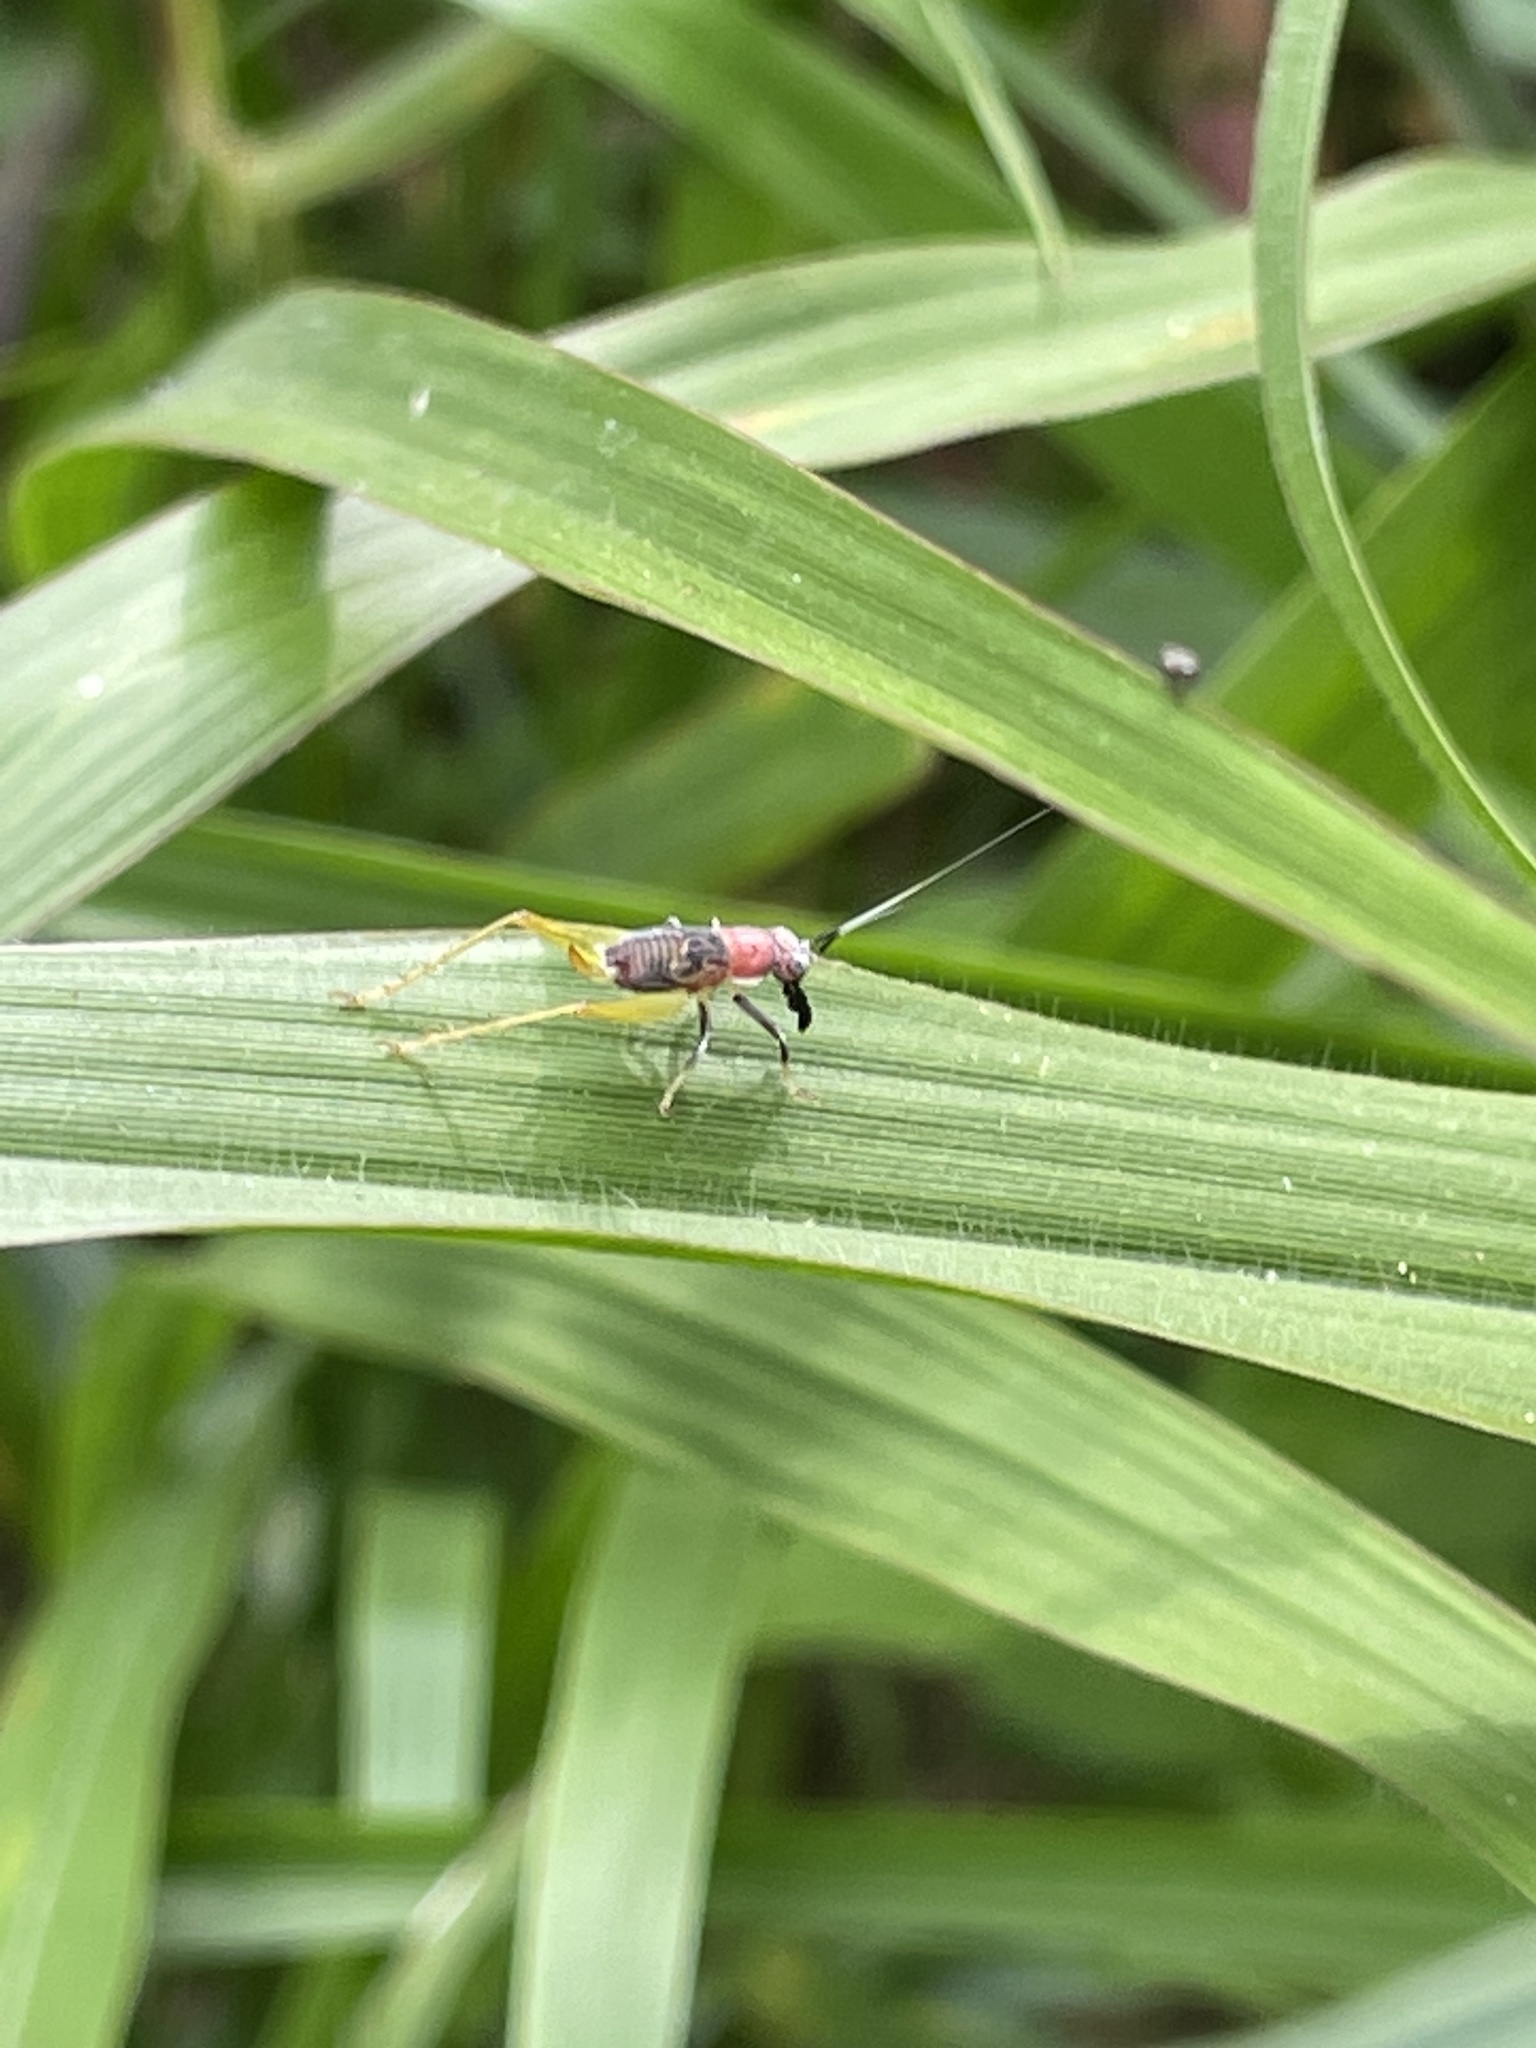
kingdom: Animalia
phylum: Arthropoda
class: Insecta
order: Orthoptera
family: Trigonidiidae
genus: Phyllopalpus
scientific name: Phyllopalpus pulchellus
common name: Handsome trig
